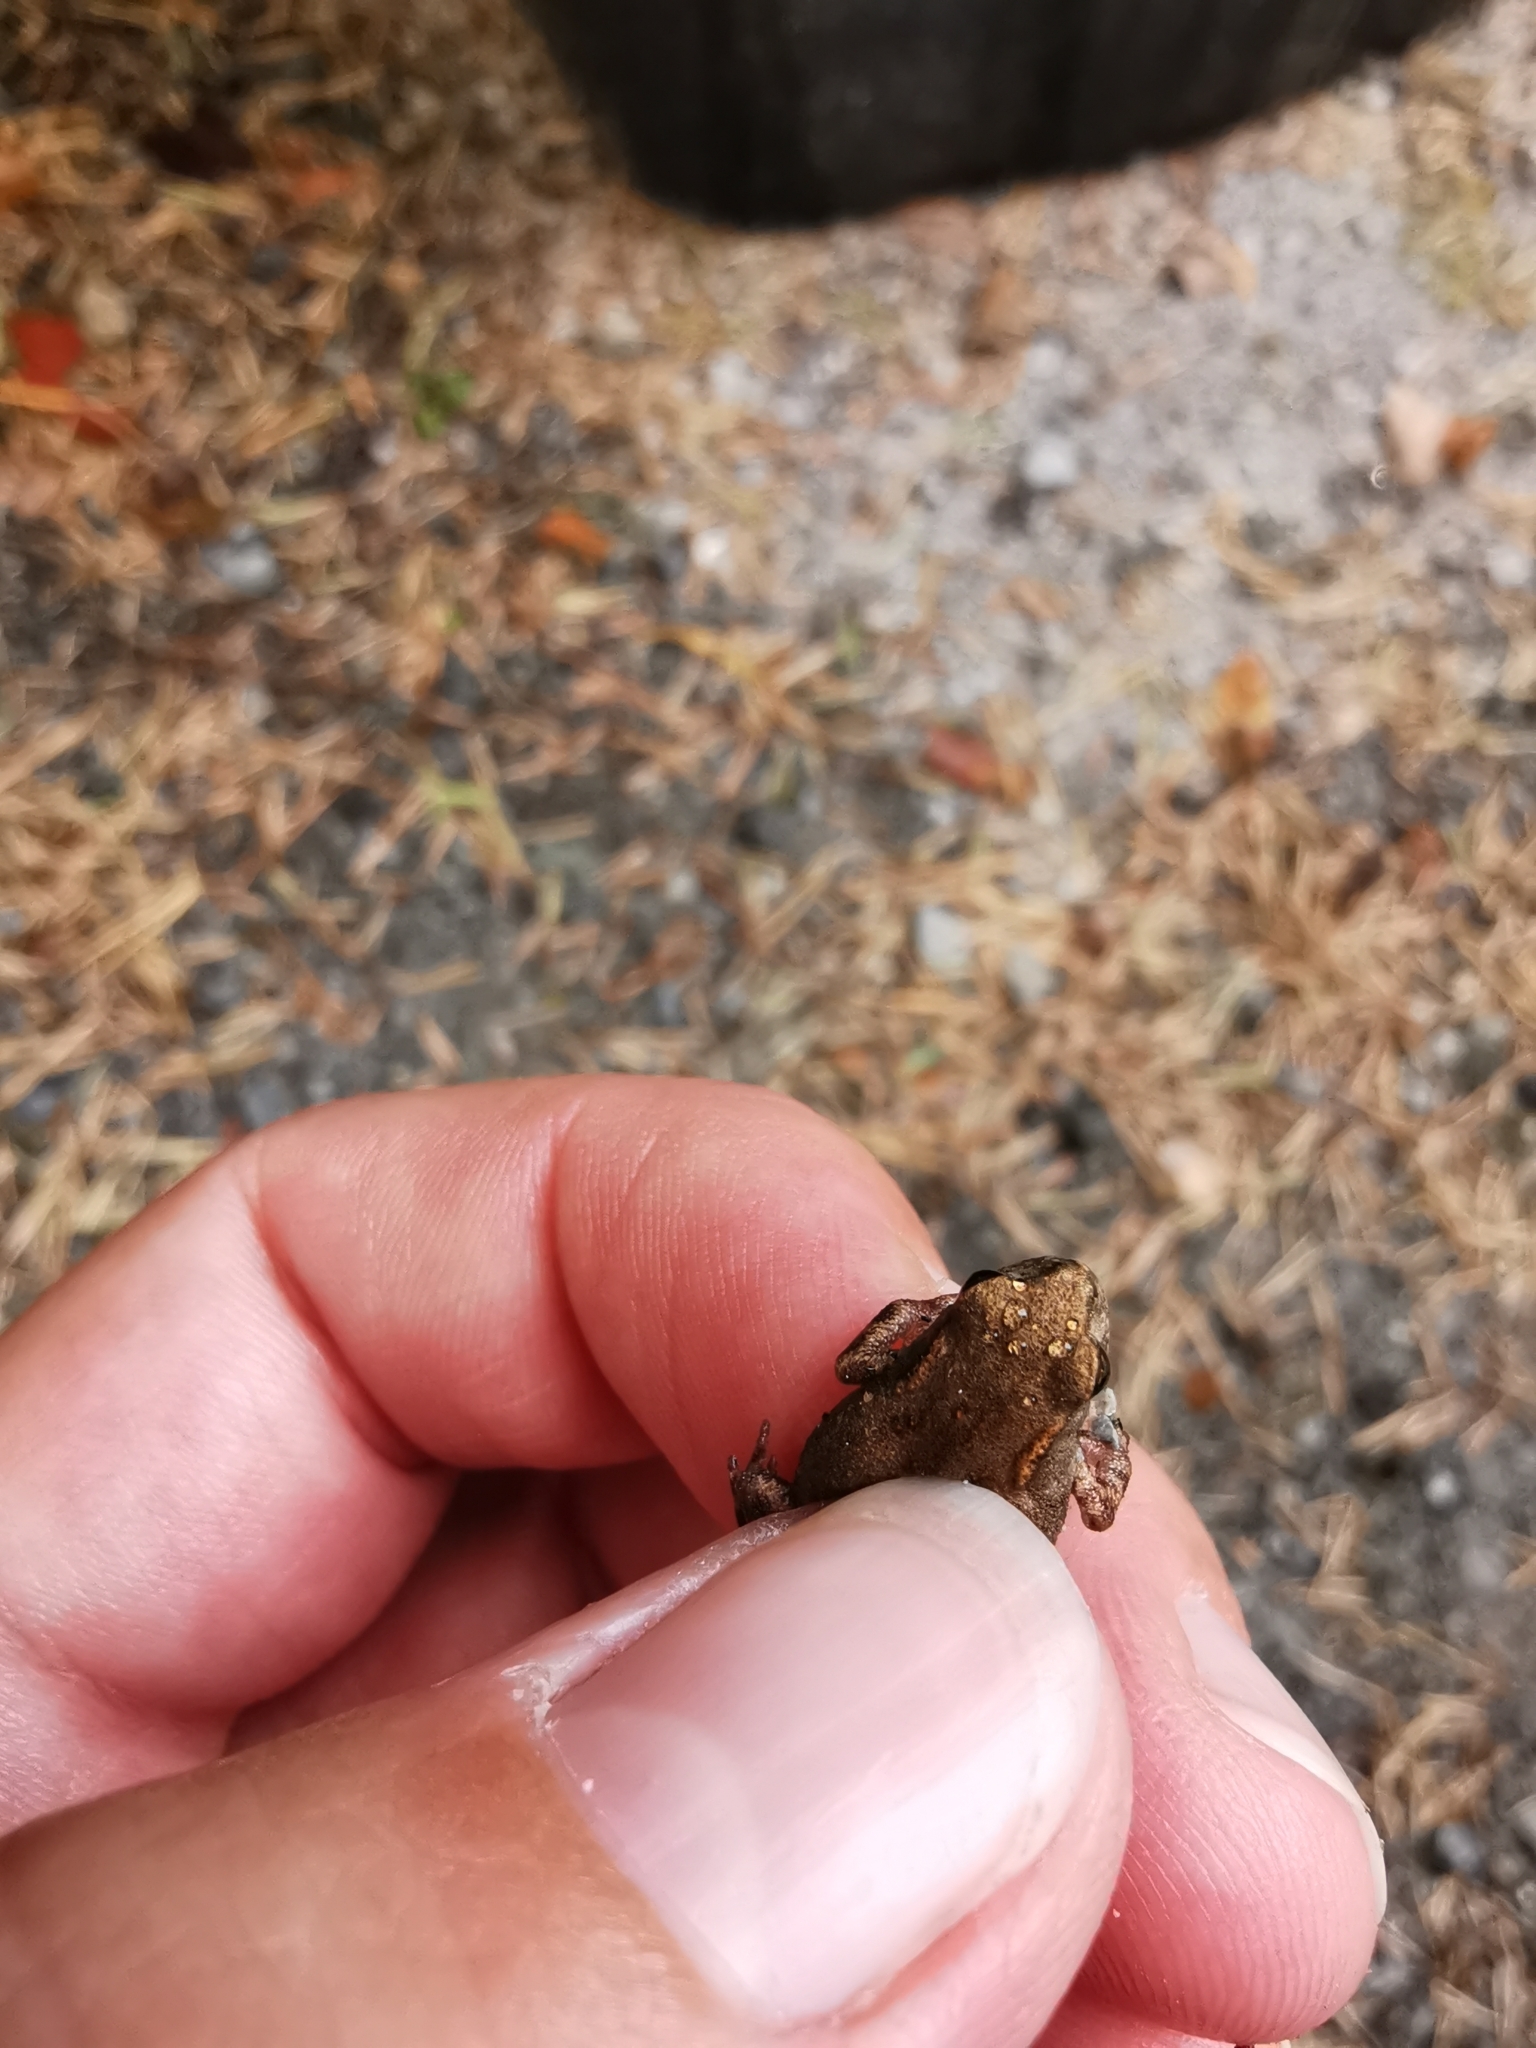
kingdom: Animalia
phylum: Chordata
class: Amphibia
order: Anura
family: Bufonidae
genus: Bufo
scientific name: Bufo bufo
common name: Common toad
